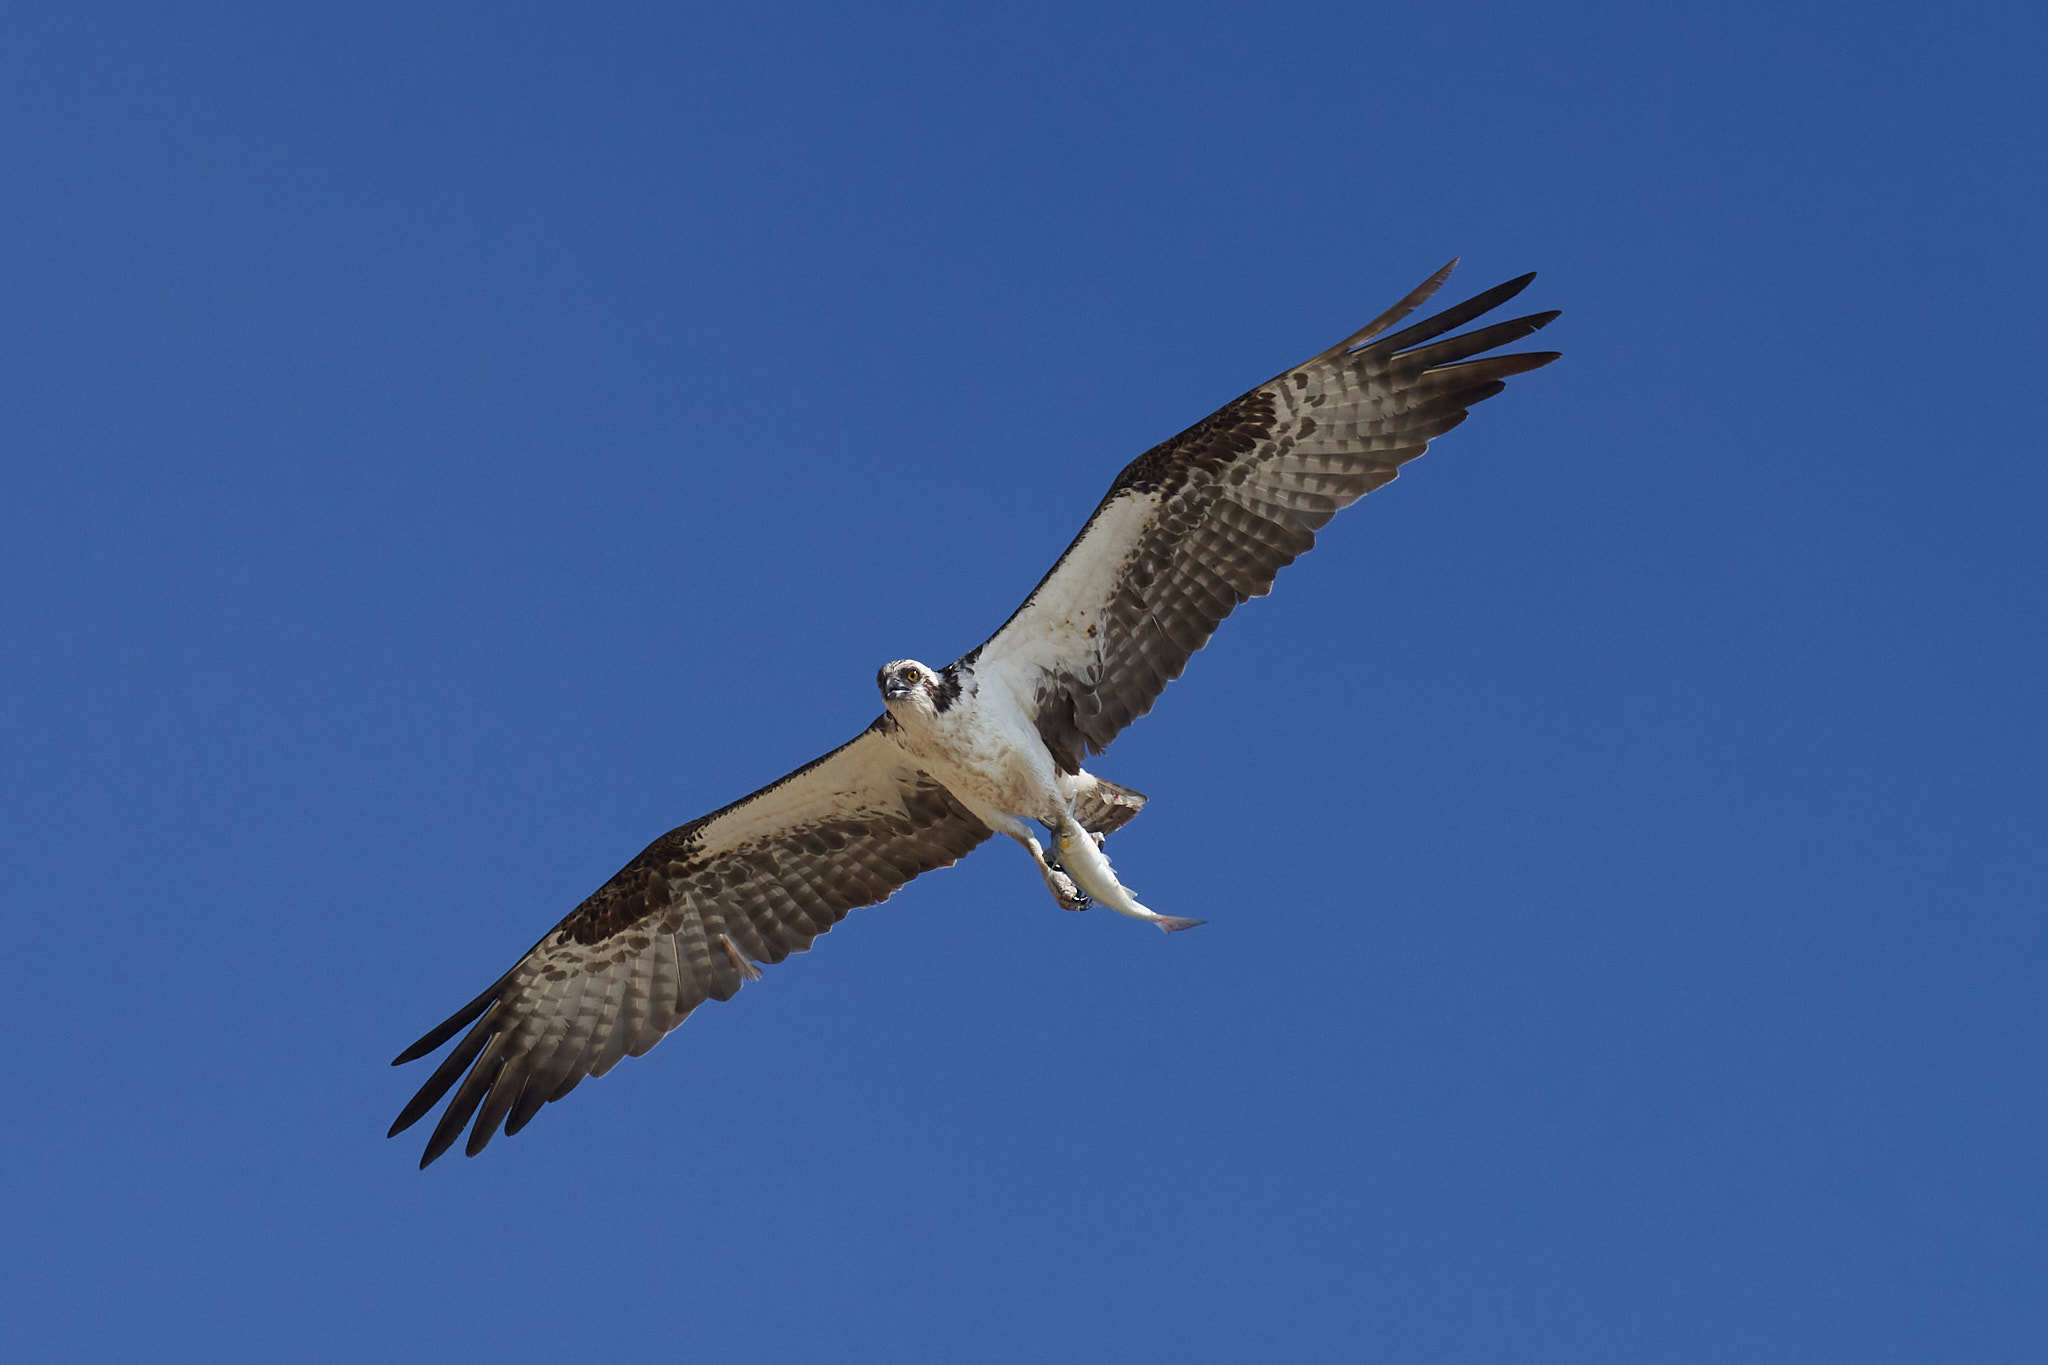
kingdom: Animalia
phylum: Chordata
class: Aves
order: Accipitriformes
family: Pandionidae
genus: Pandion
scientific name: Pandion haliaetus
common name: Osprey
